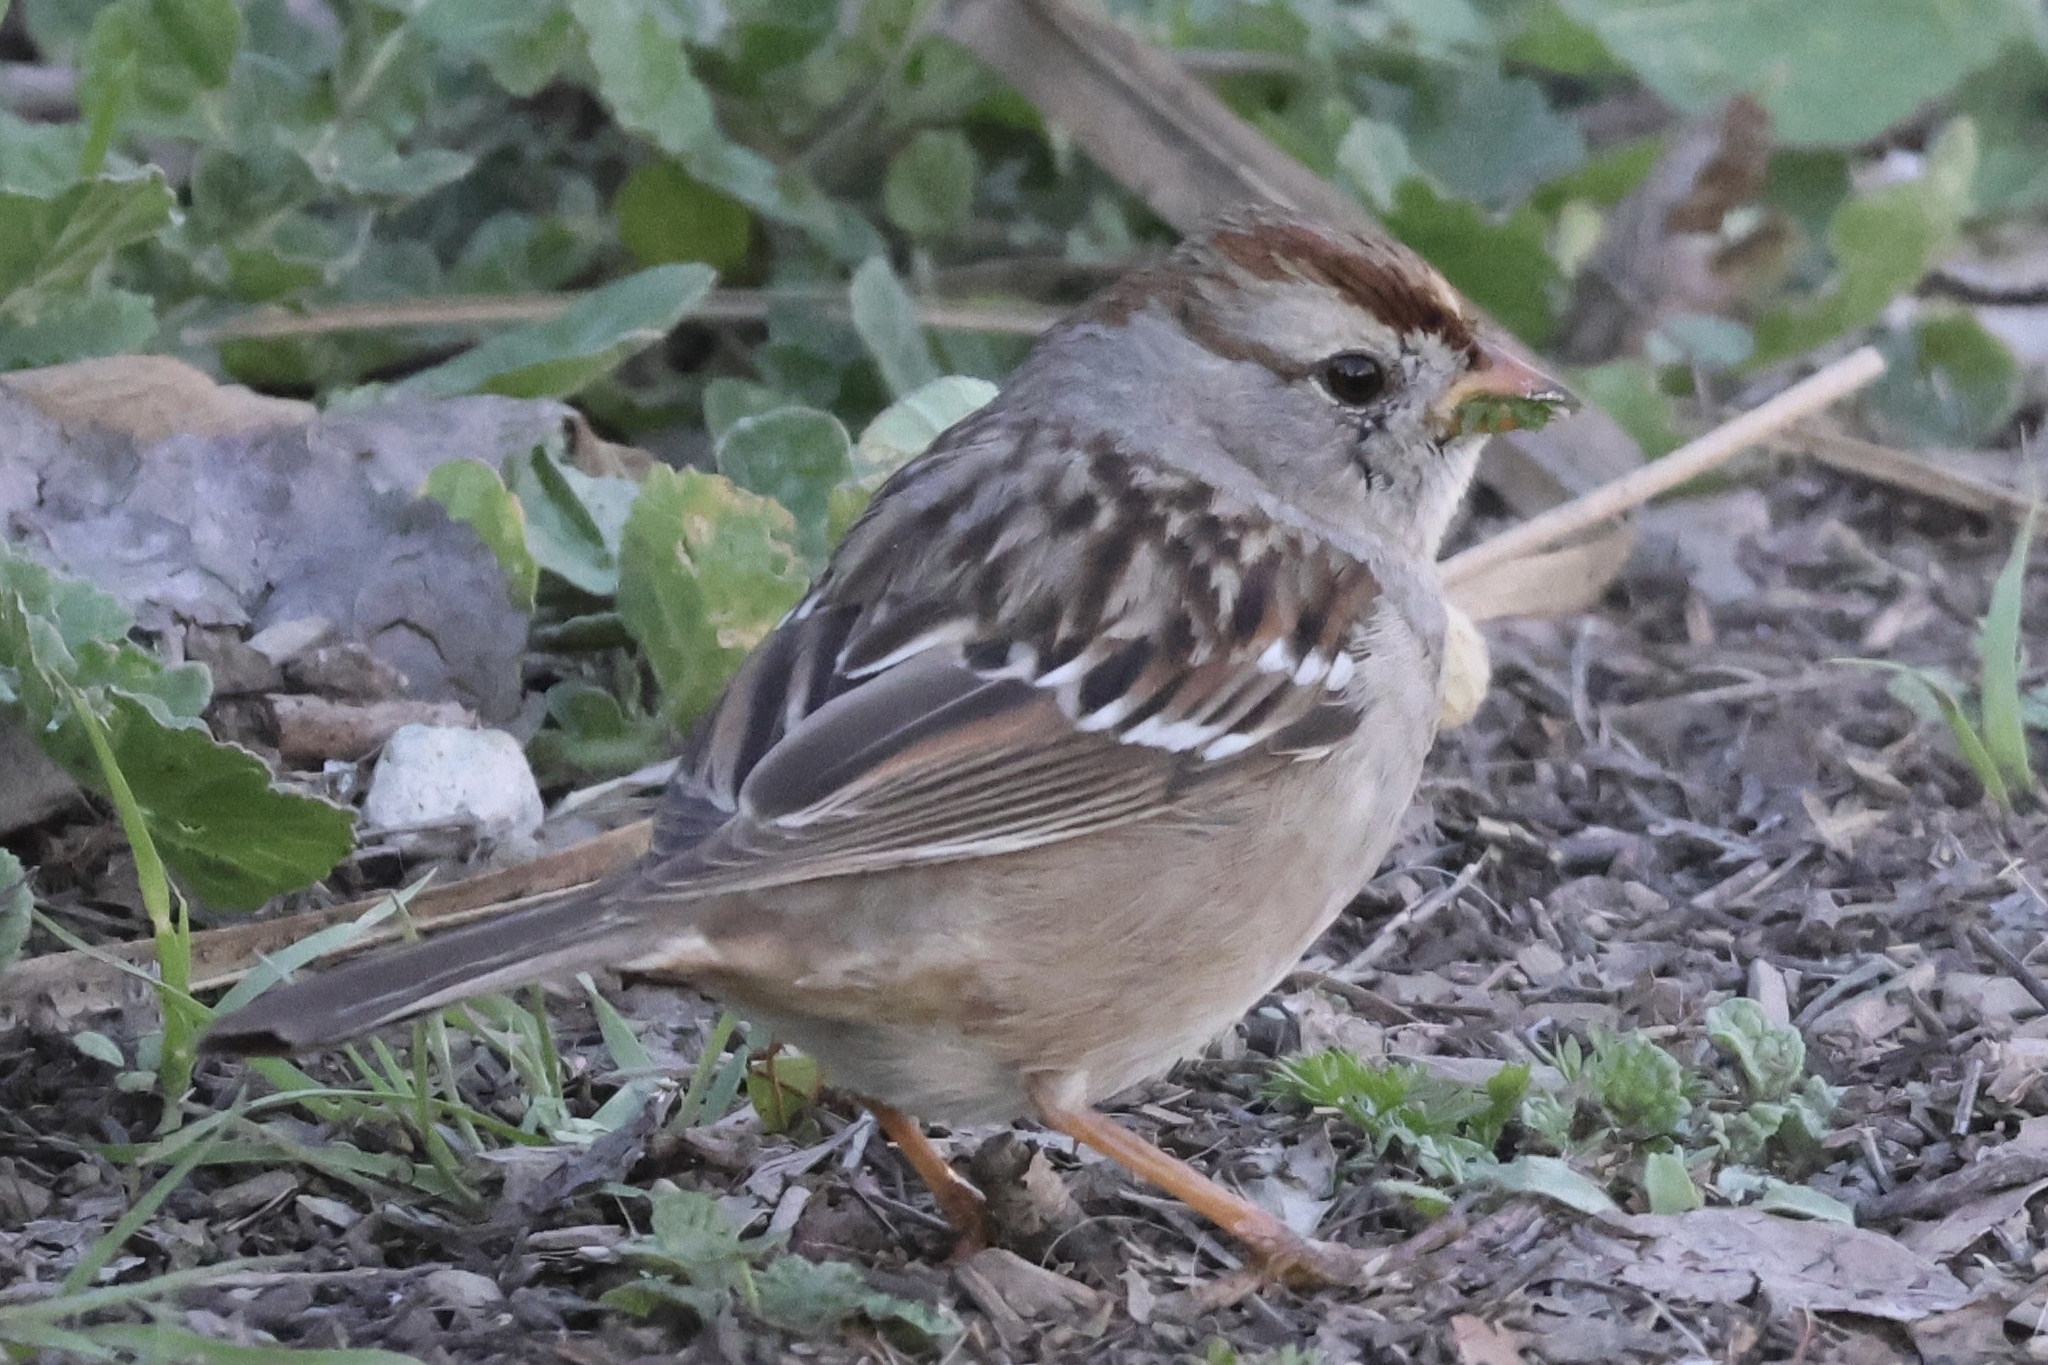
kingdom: Animalia
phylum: Chordata
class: Aves
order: Passeriformes
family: Passerellidae
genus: Zonotrichia
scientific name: Zonotrichia leucophrys
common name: White-crowned sparrow
